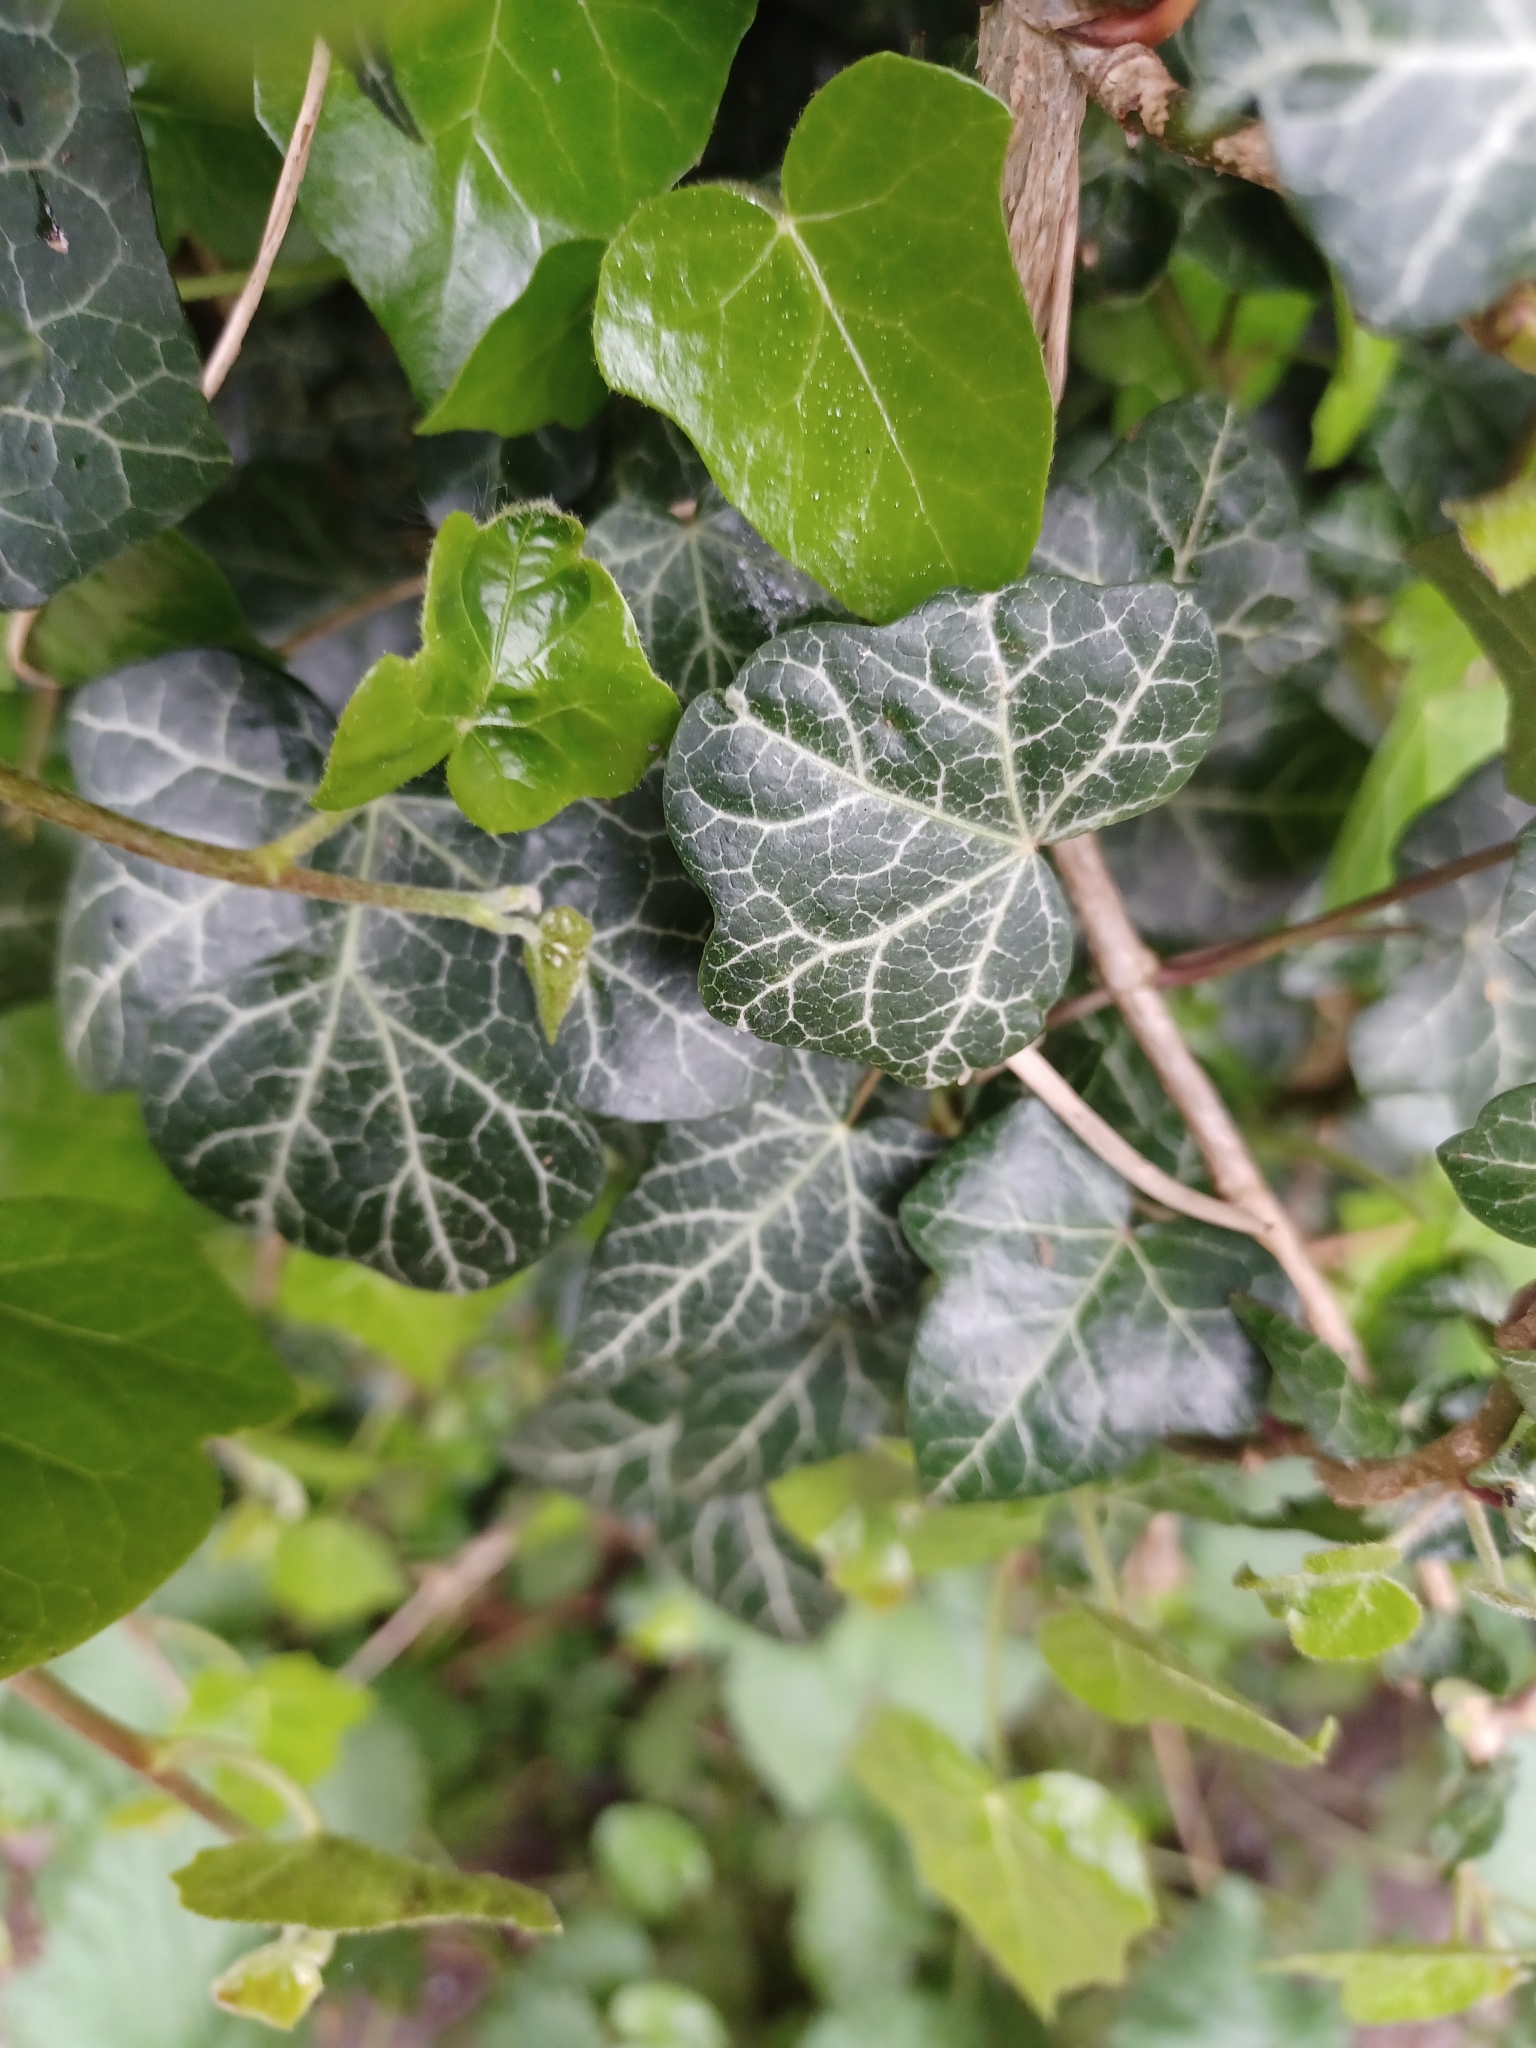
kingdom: Plantae
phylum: Tracheophyta
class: Magnoliopsida
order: Apiales
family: Araliaceae
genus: Hedera
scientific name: Hedera helix
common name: Ivy
